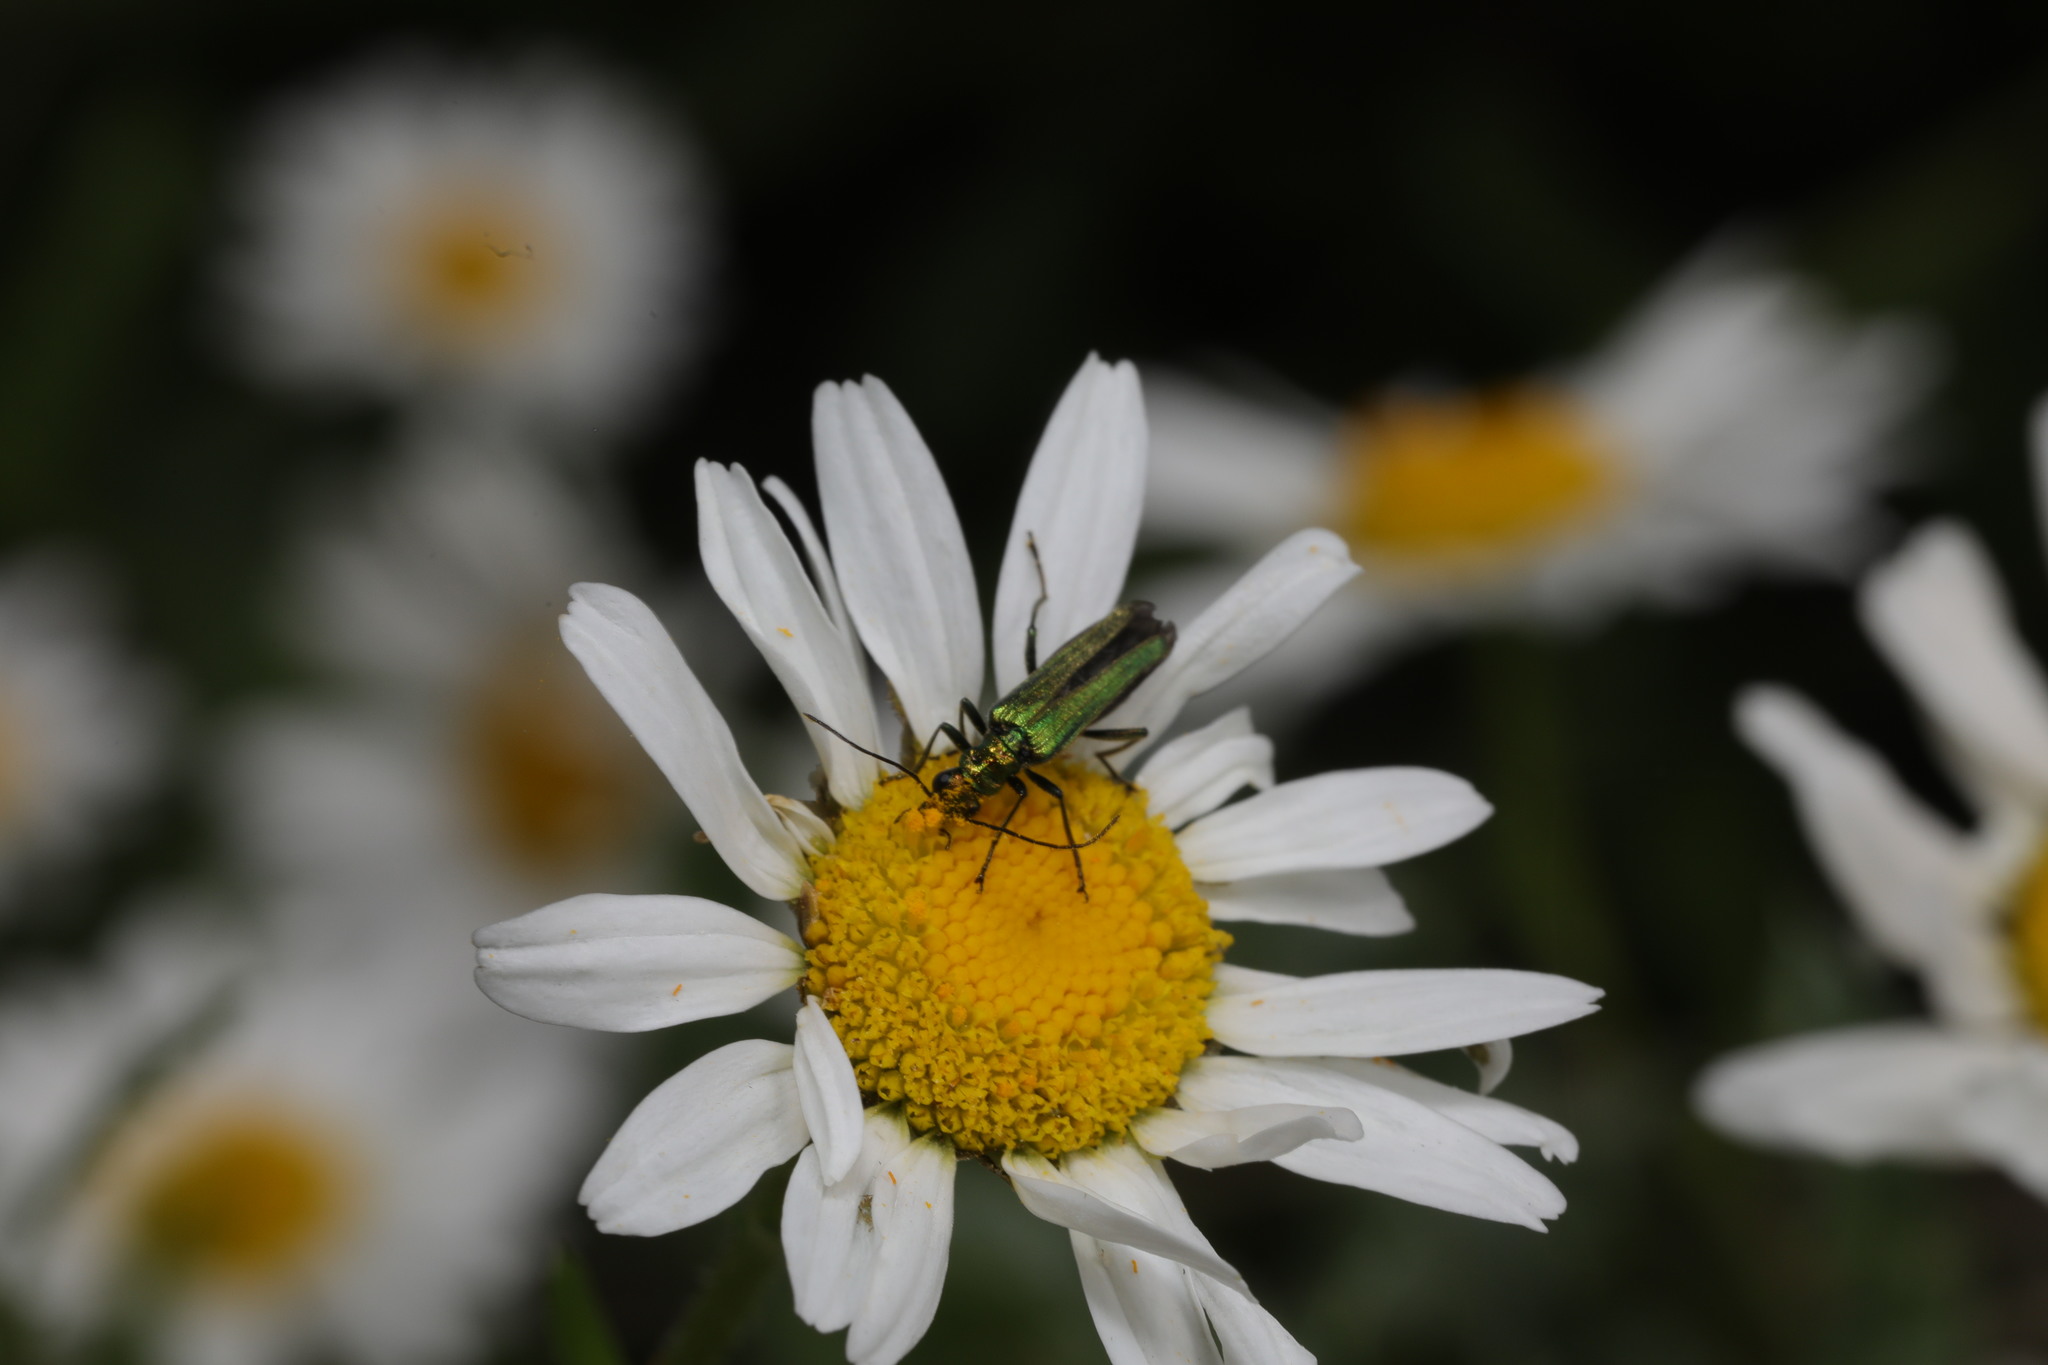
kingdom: Animalia
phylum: Arthropoda
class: Insecta
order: Coleoptera
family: Oedemeridae
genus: Oedemera
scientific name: Oedemera nobilis
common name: Swollen-thighed beetle
